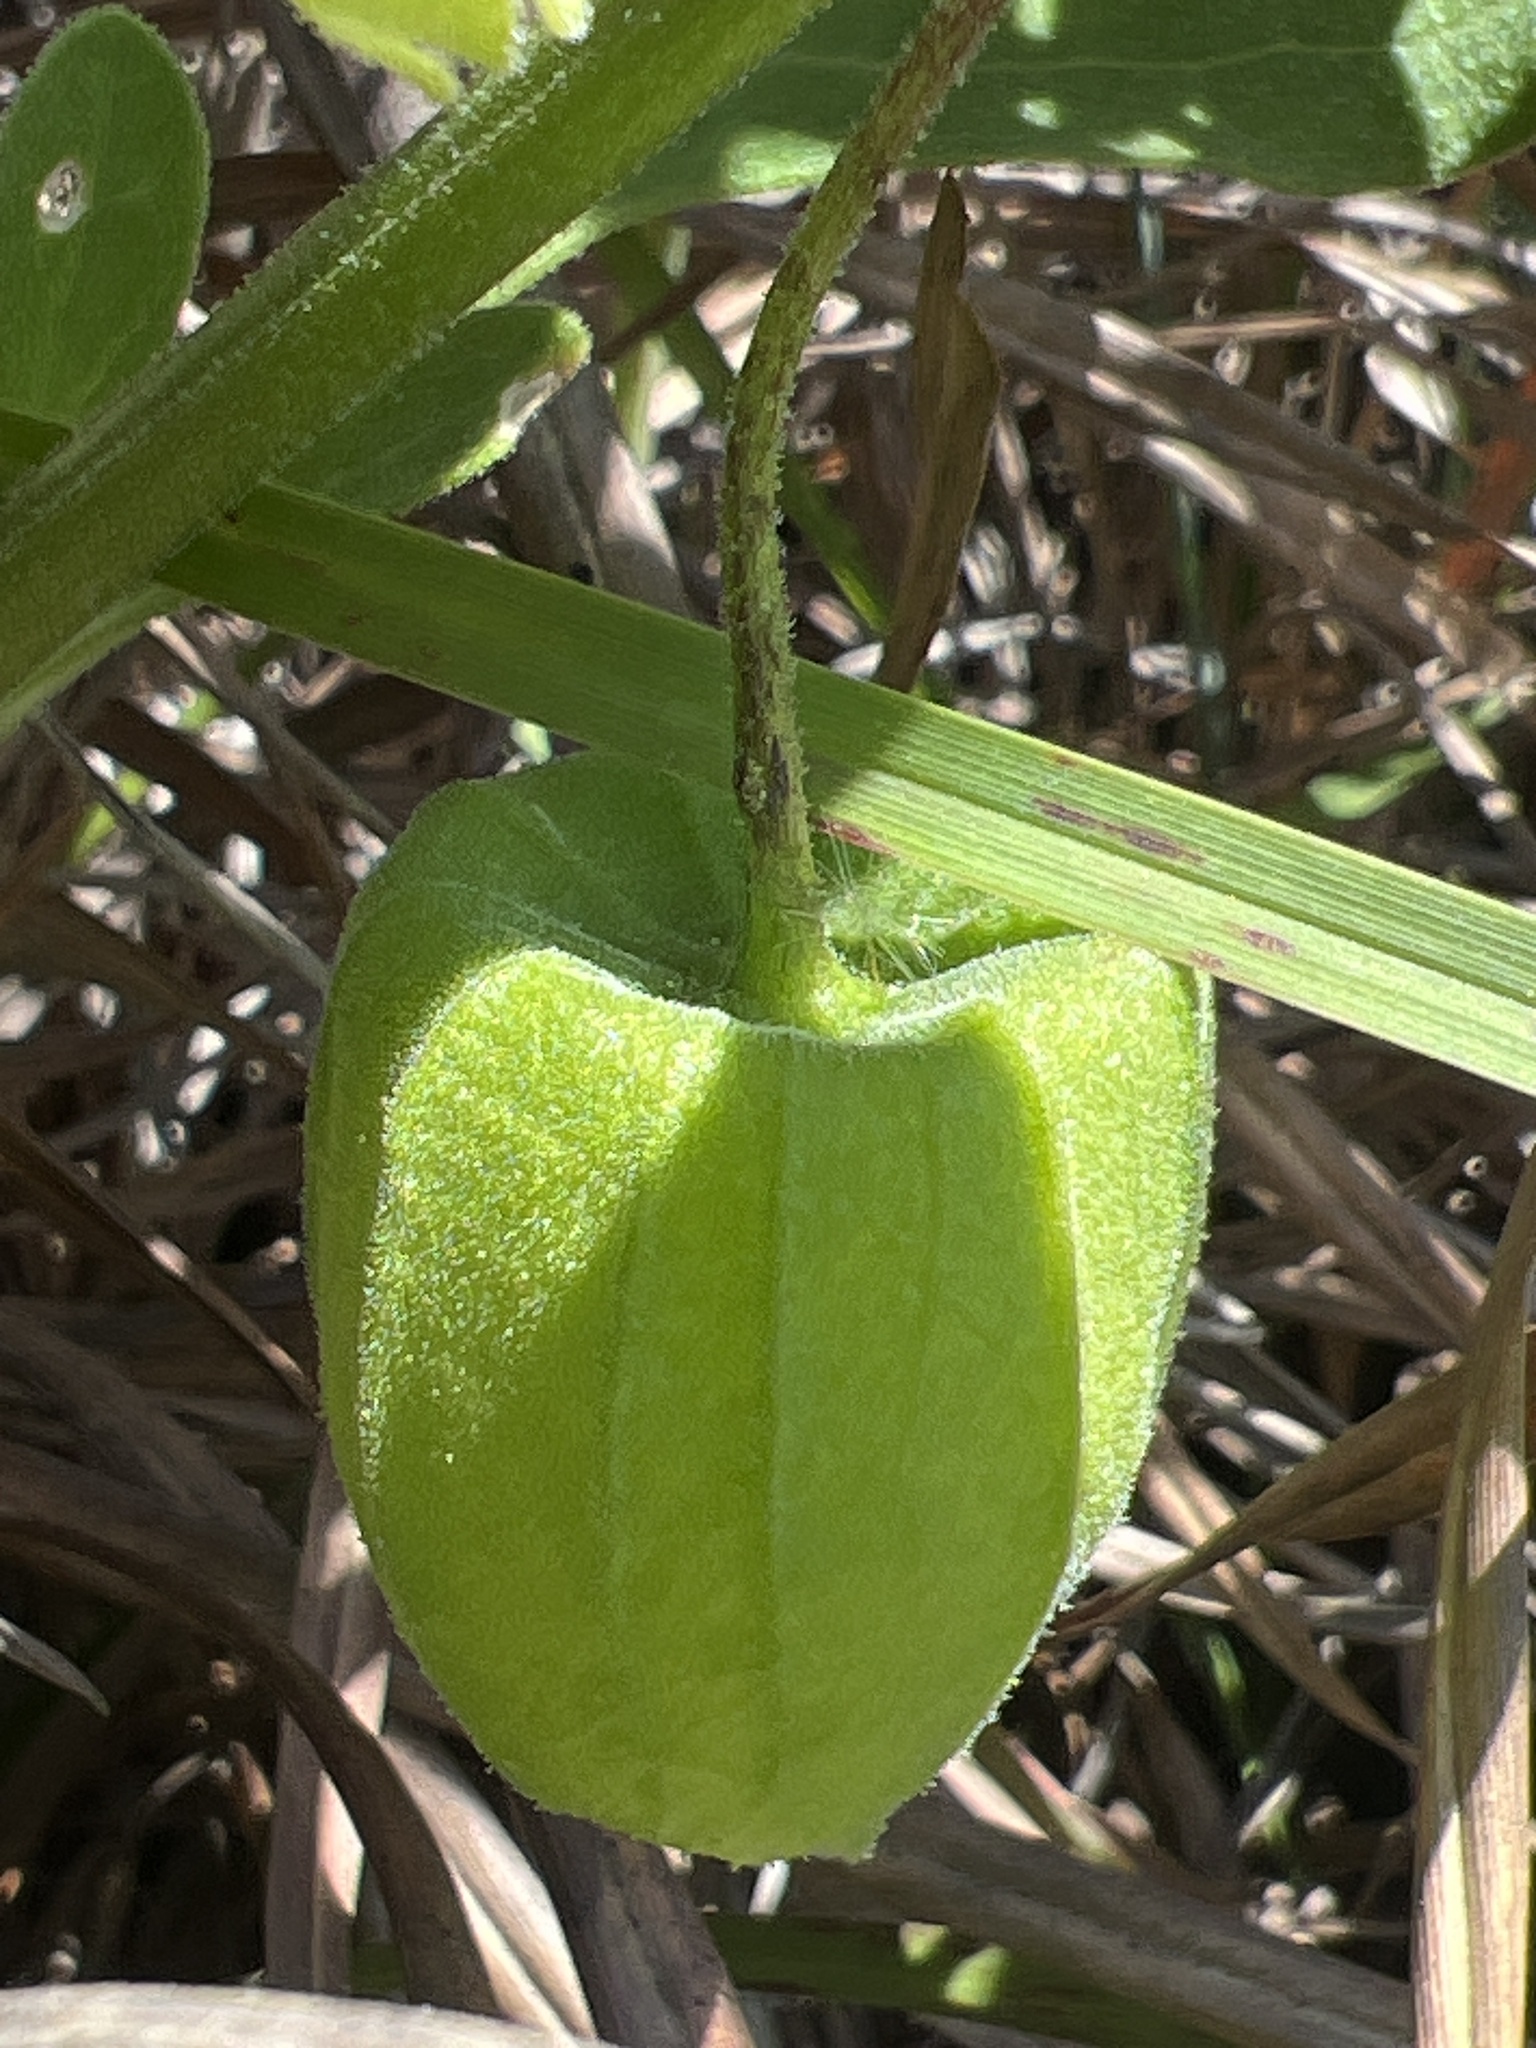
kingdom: Plantae
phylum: Tracheophyta
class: Magnoliopsida
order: Solanales
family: Solanaceae
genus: Physalis
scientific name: Physalis cinerascens
